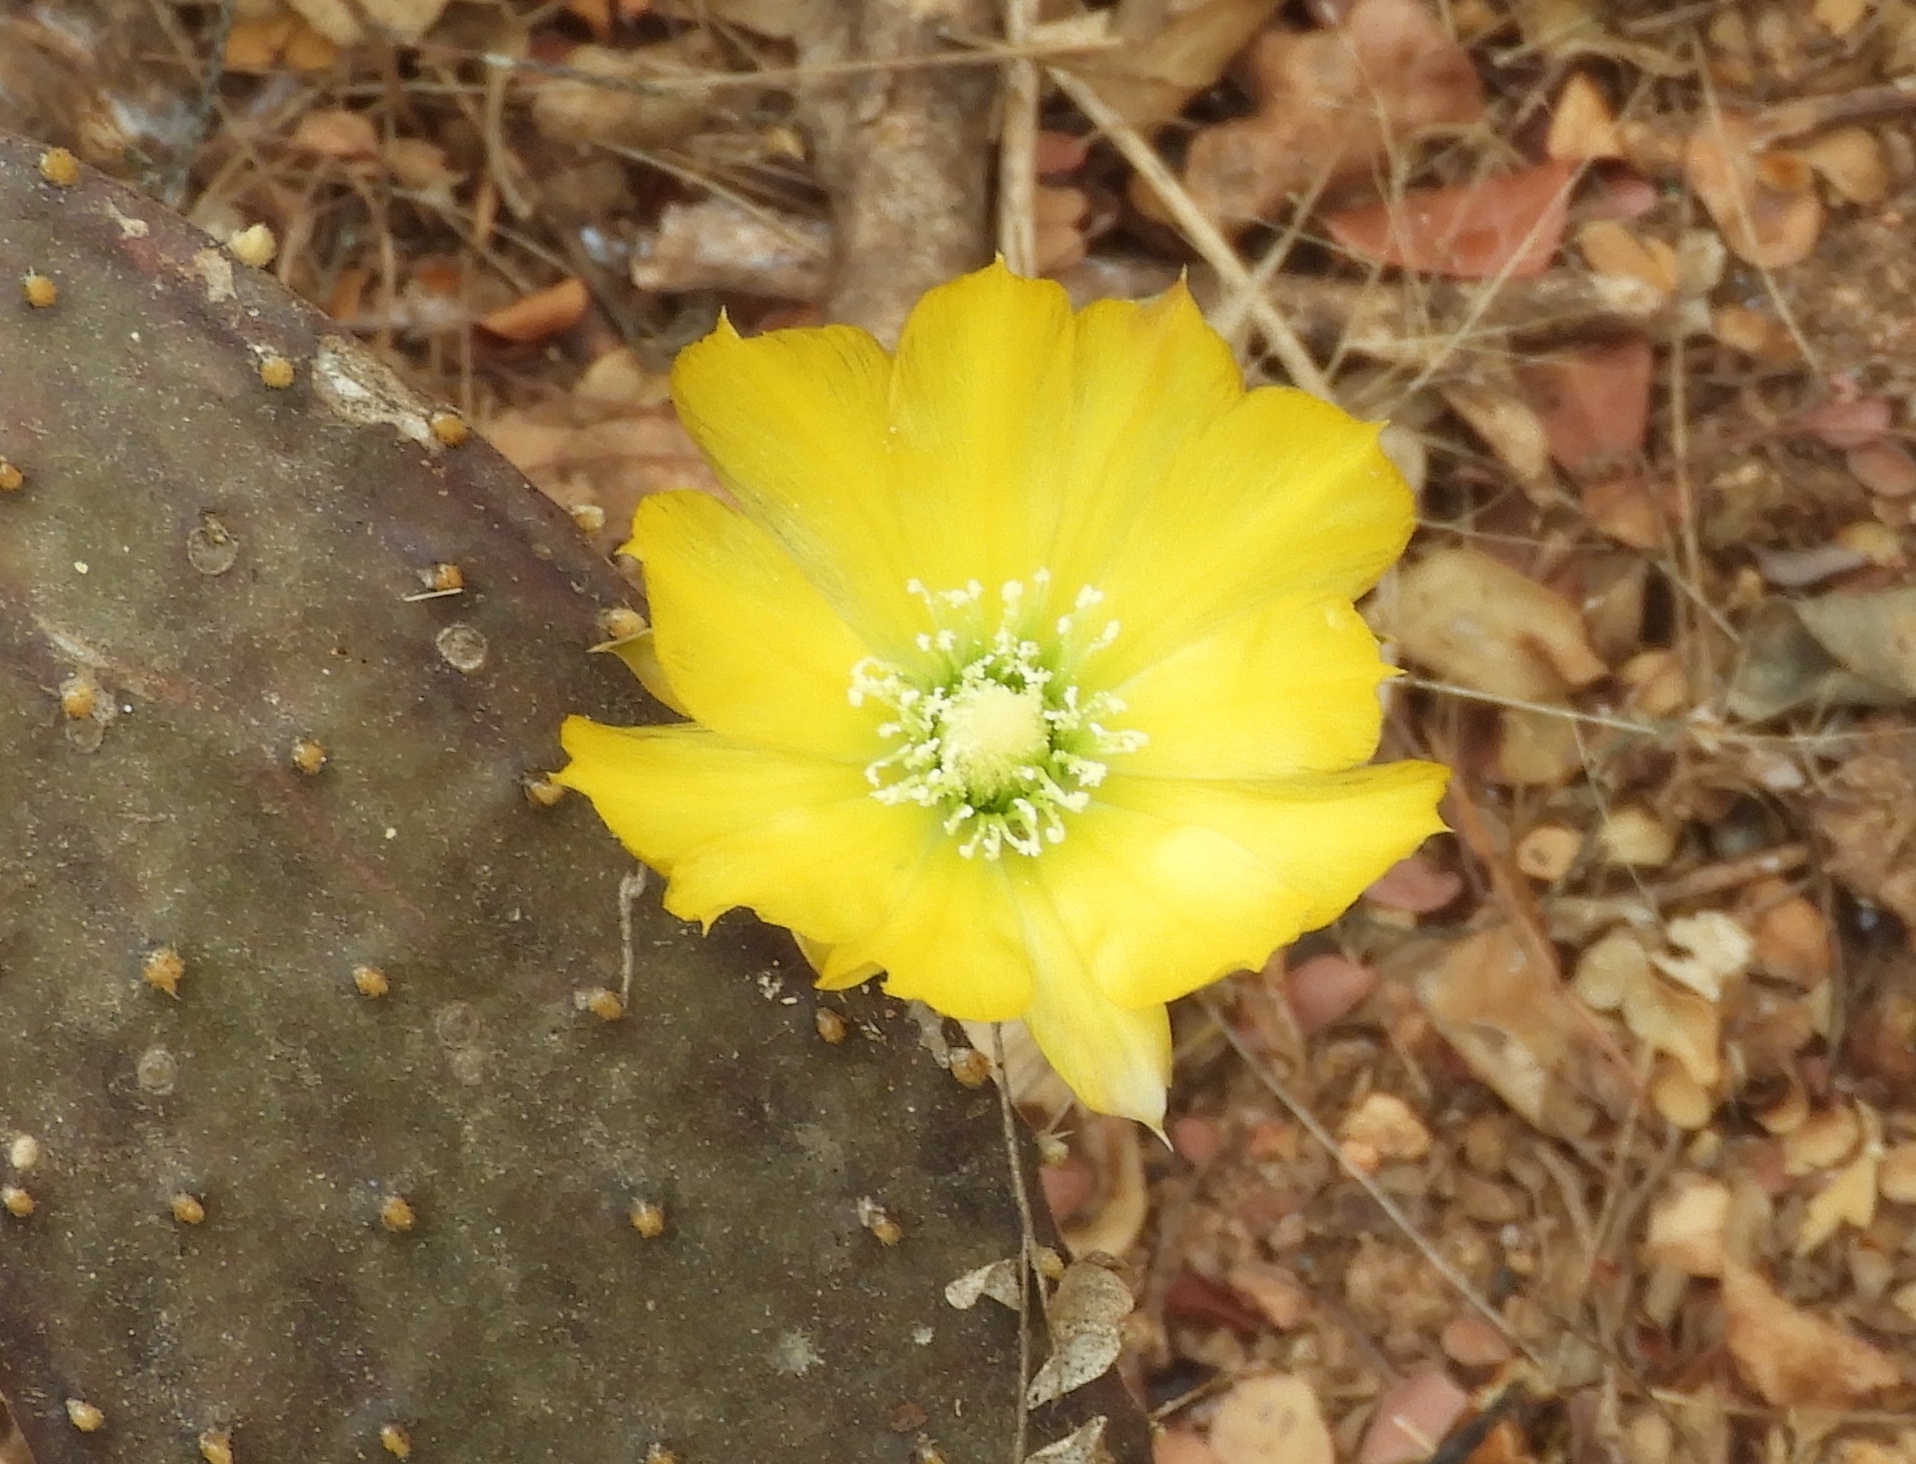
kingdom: Plantae
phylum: Tracheophyta
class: Magnoliopsida
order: Caryophyllales
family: Cactaceae
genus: Opuntia
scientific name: Opuntia decumbens
